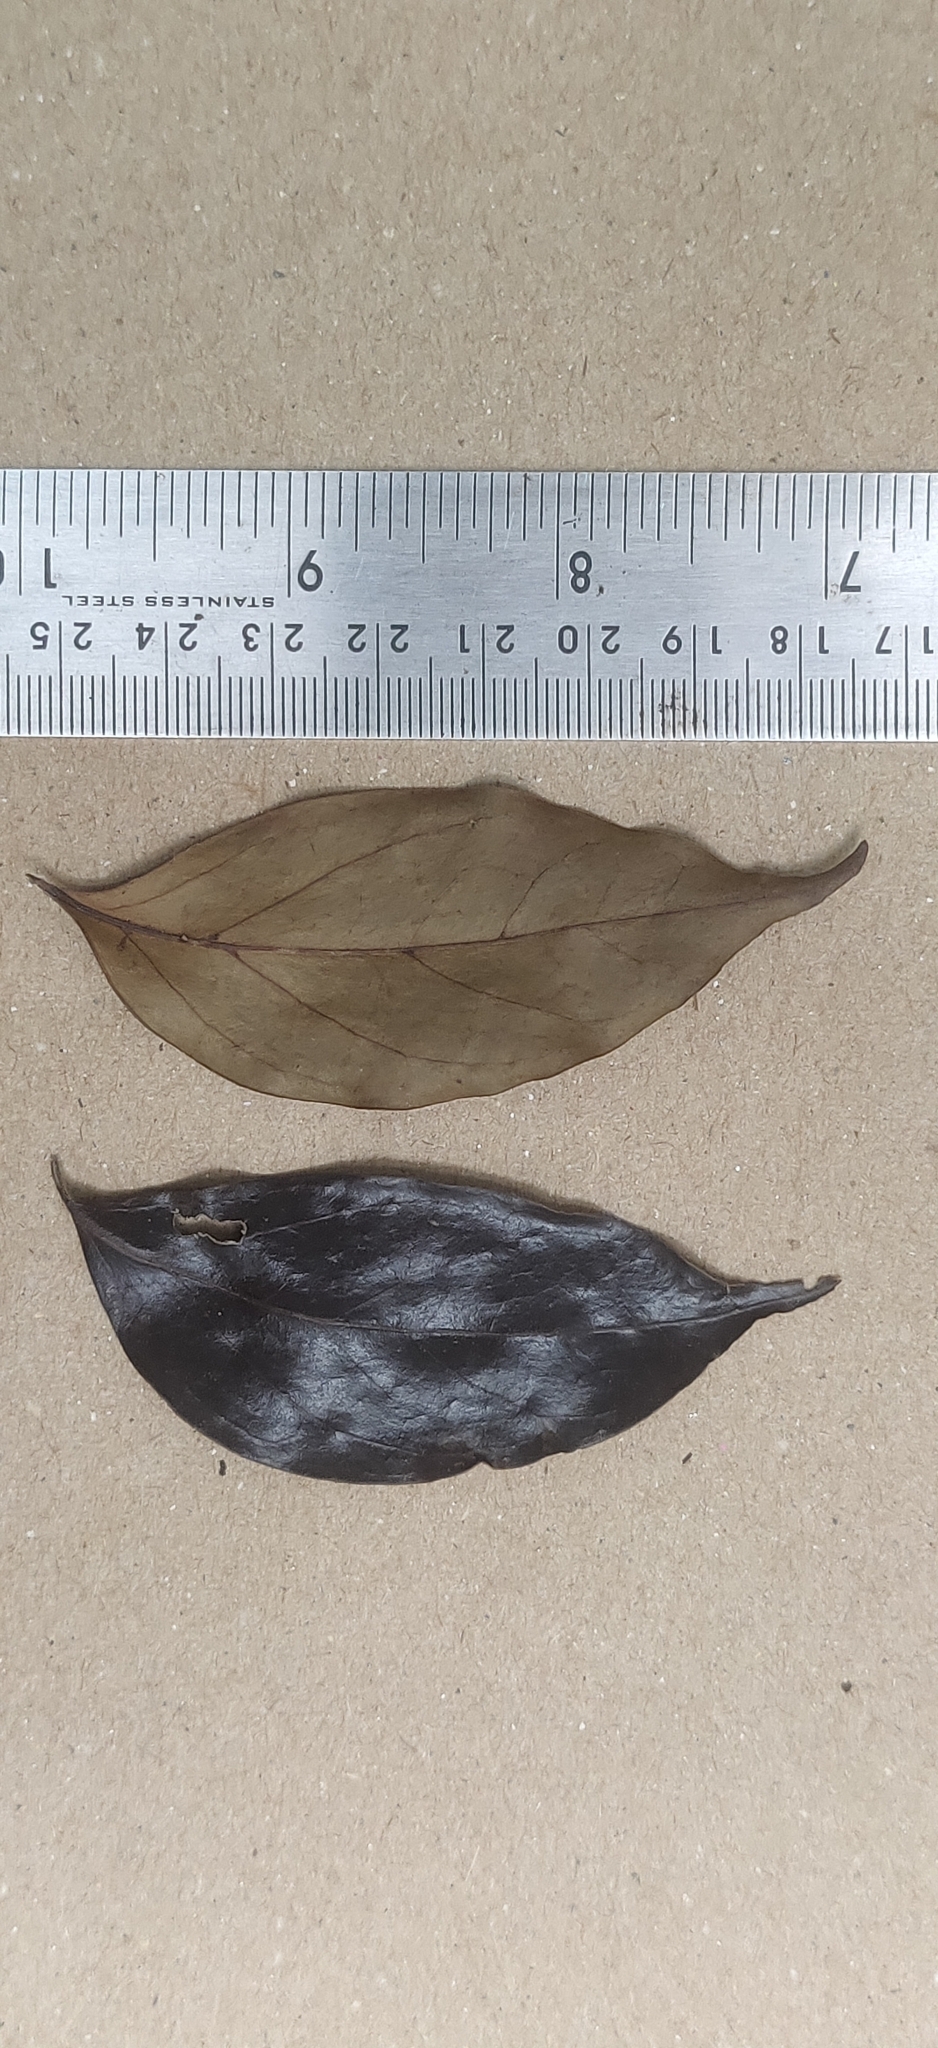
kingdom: Plantae
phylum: Tracheophyta
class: Magnoliopsida
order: Gentianales
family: Rubiaceae
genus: Psydrax
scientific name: Psydrax dicoccos
